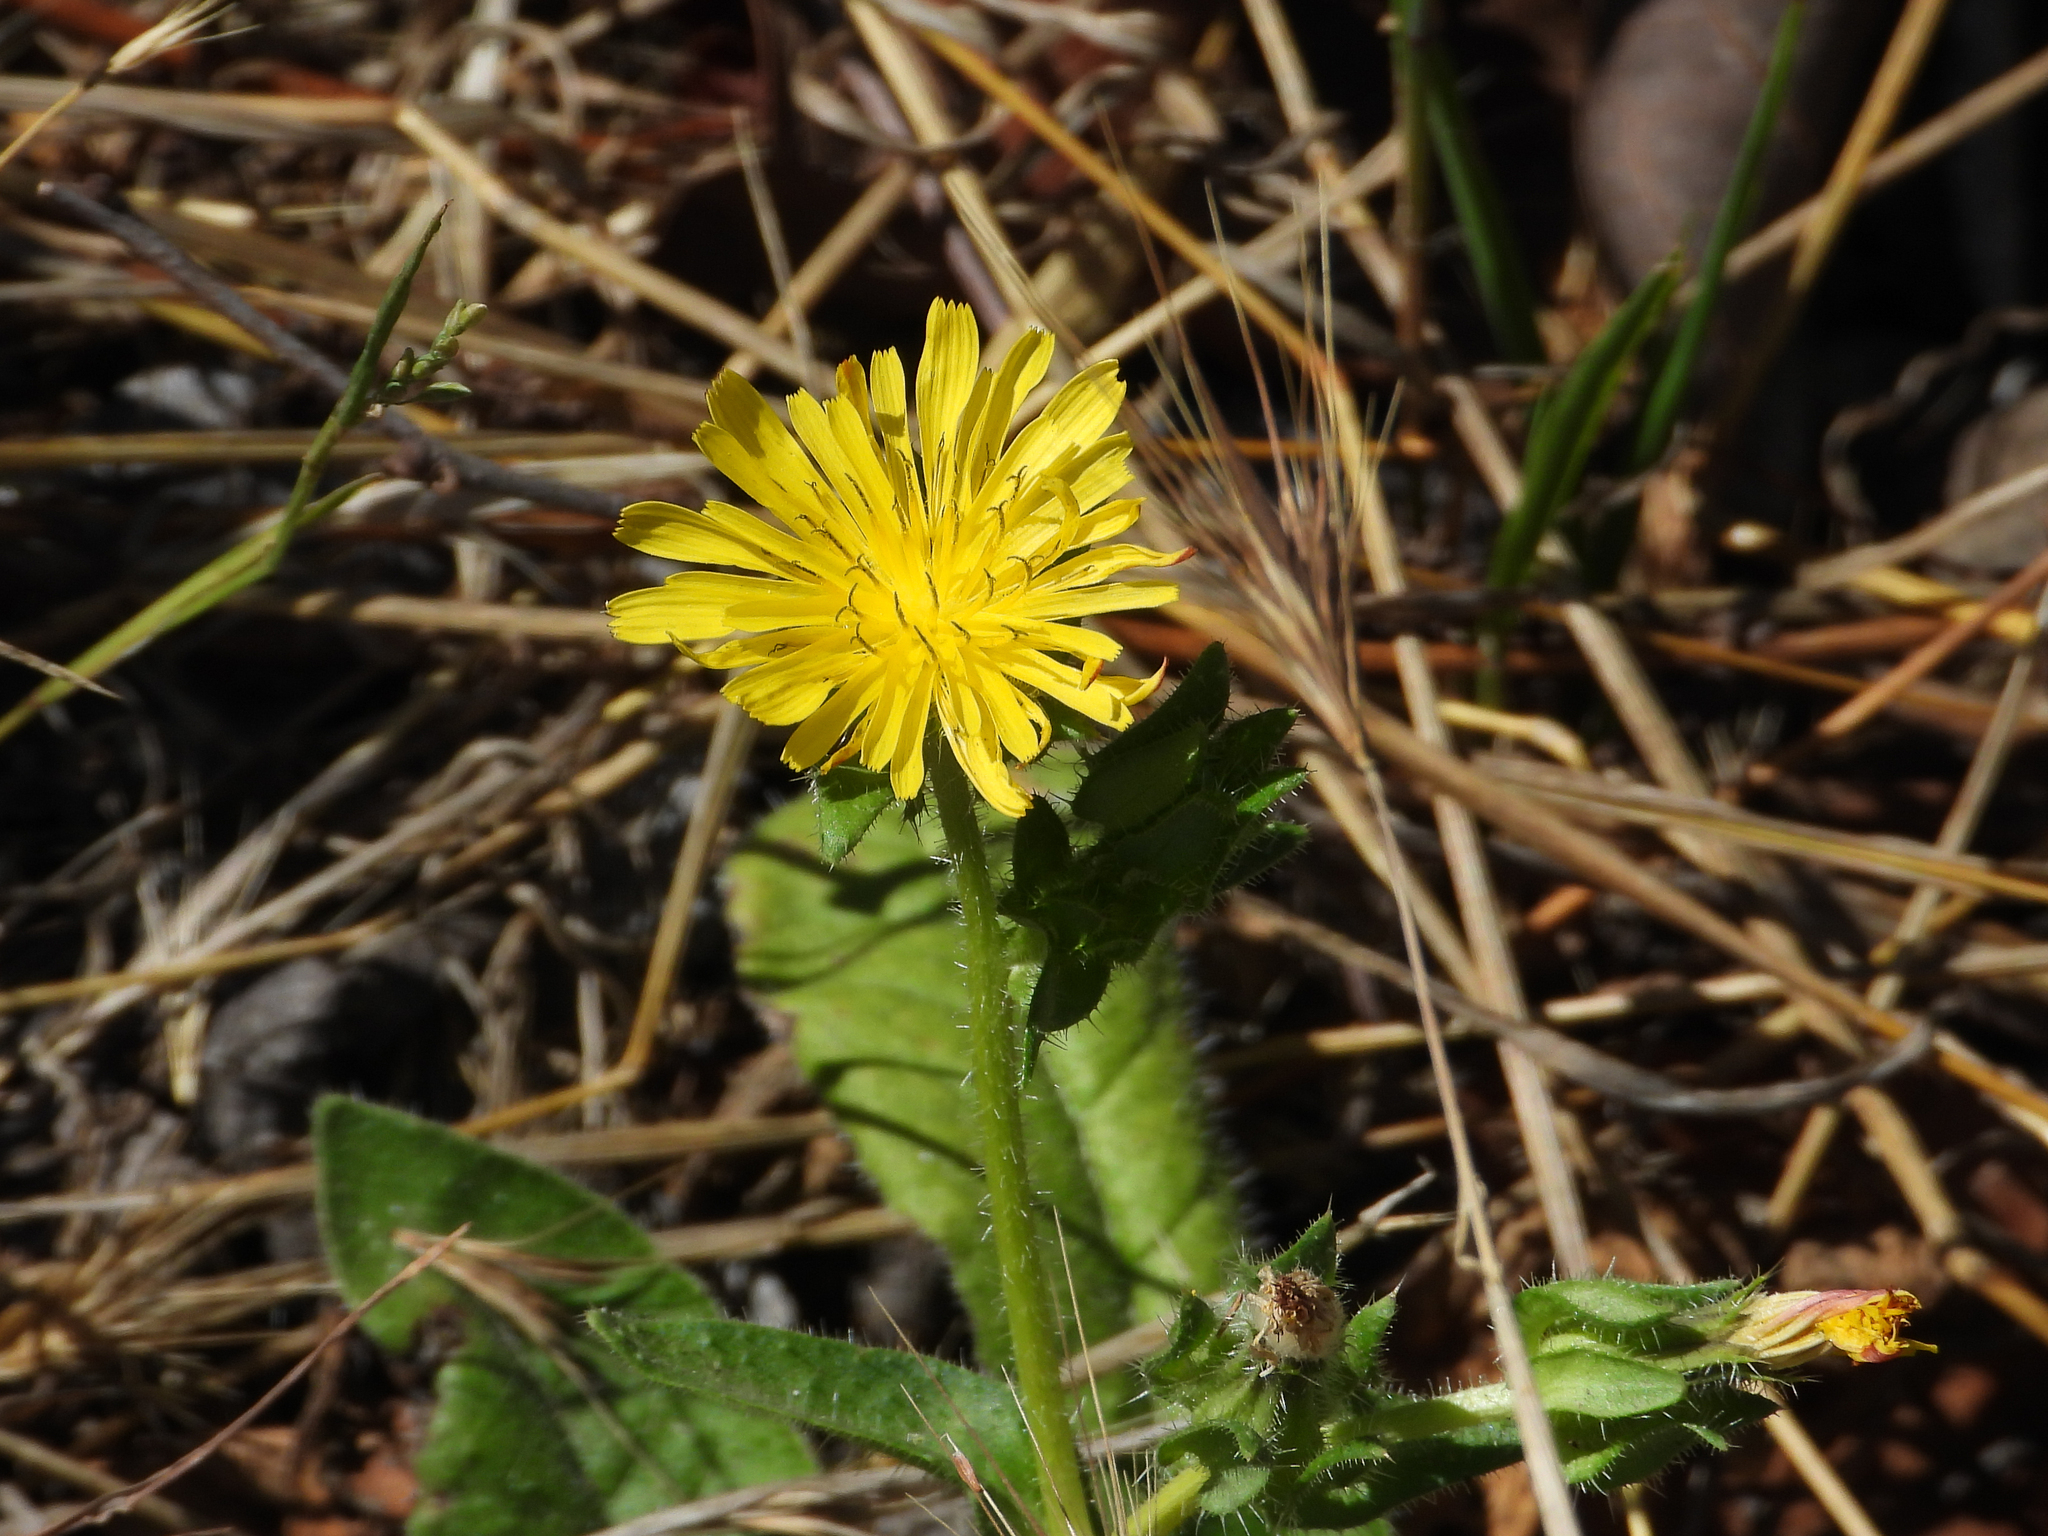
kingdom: Plantae
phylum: Tracheophyta
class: Magnoliopsida
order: Asterales
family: Asteraceae
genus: Helminthotheca
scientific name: Helminthotheca echioides
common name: Ox-tongue
